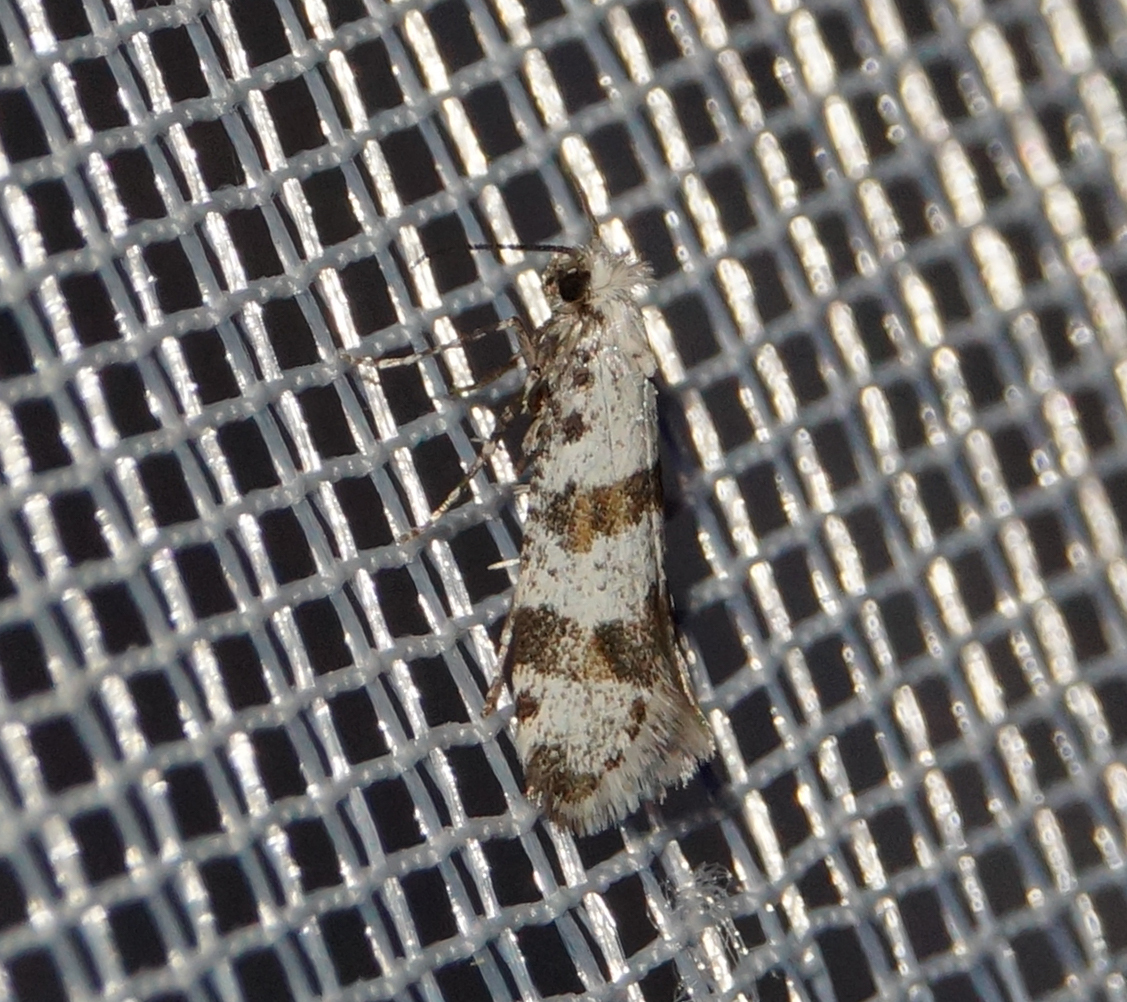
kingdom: Animalia
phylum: Arthropoda
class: Insecta
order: Lepidoptera
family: Yponomeutidae
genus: Scythropia
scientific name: Scythropia crataegella
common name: Hawthorn moth
